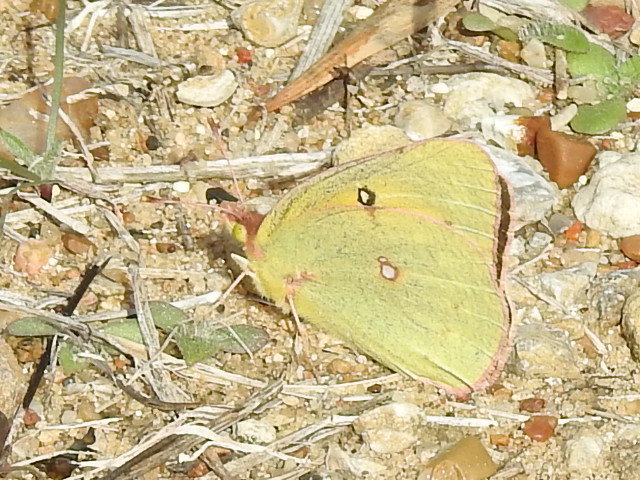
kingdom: Animalia
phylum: Arthropoda
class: Insecta
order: Lepidoptera
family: Pieridae
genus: Colias
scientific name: Colias eurytheme
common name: Alfalfa butterfly
